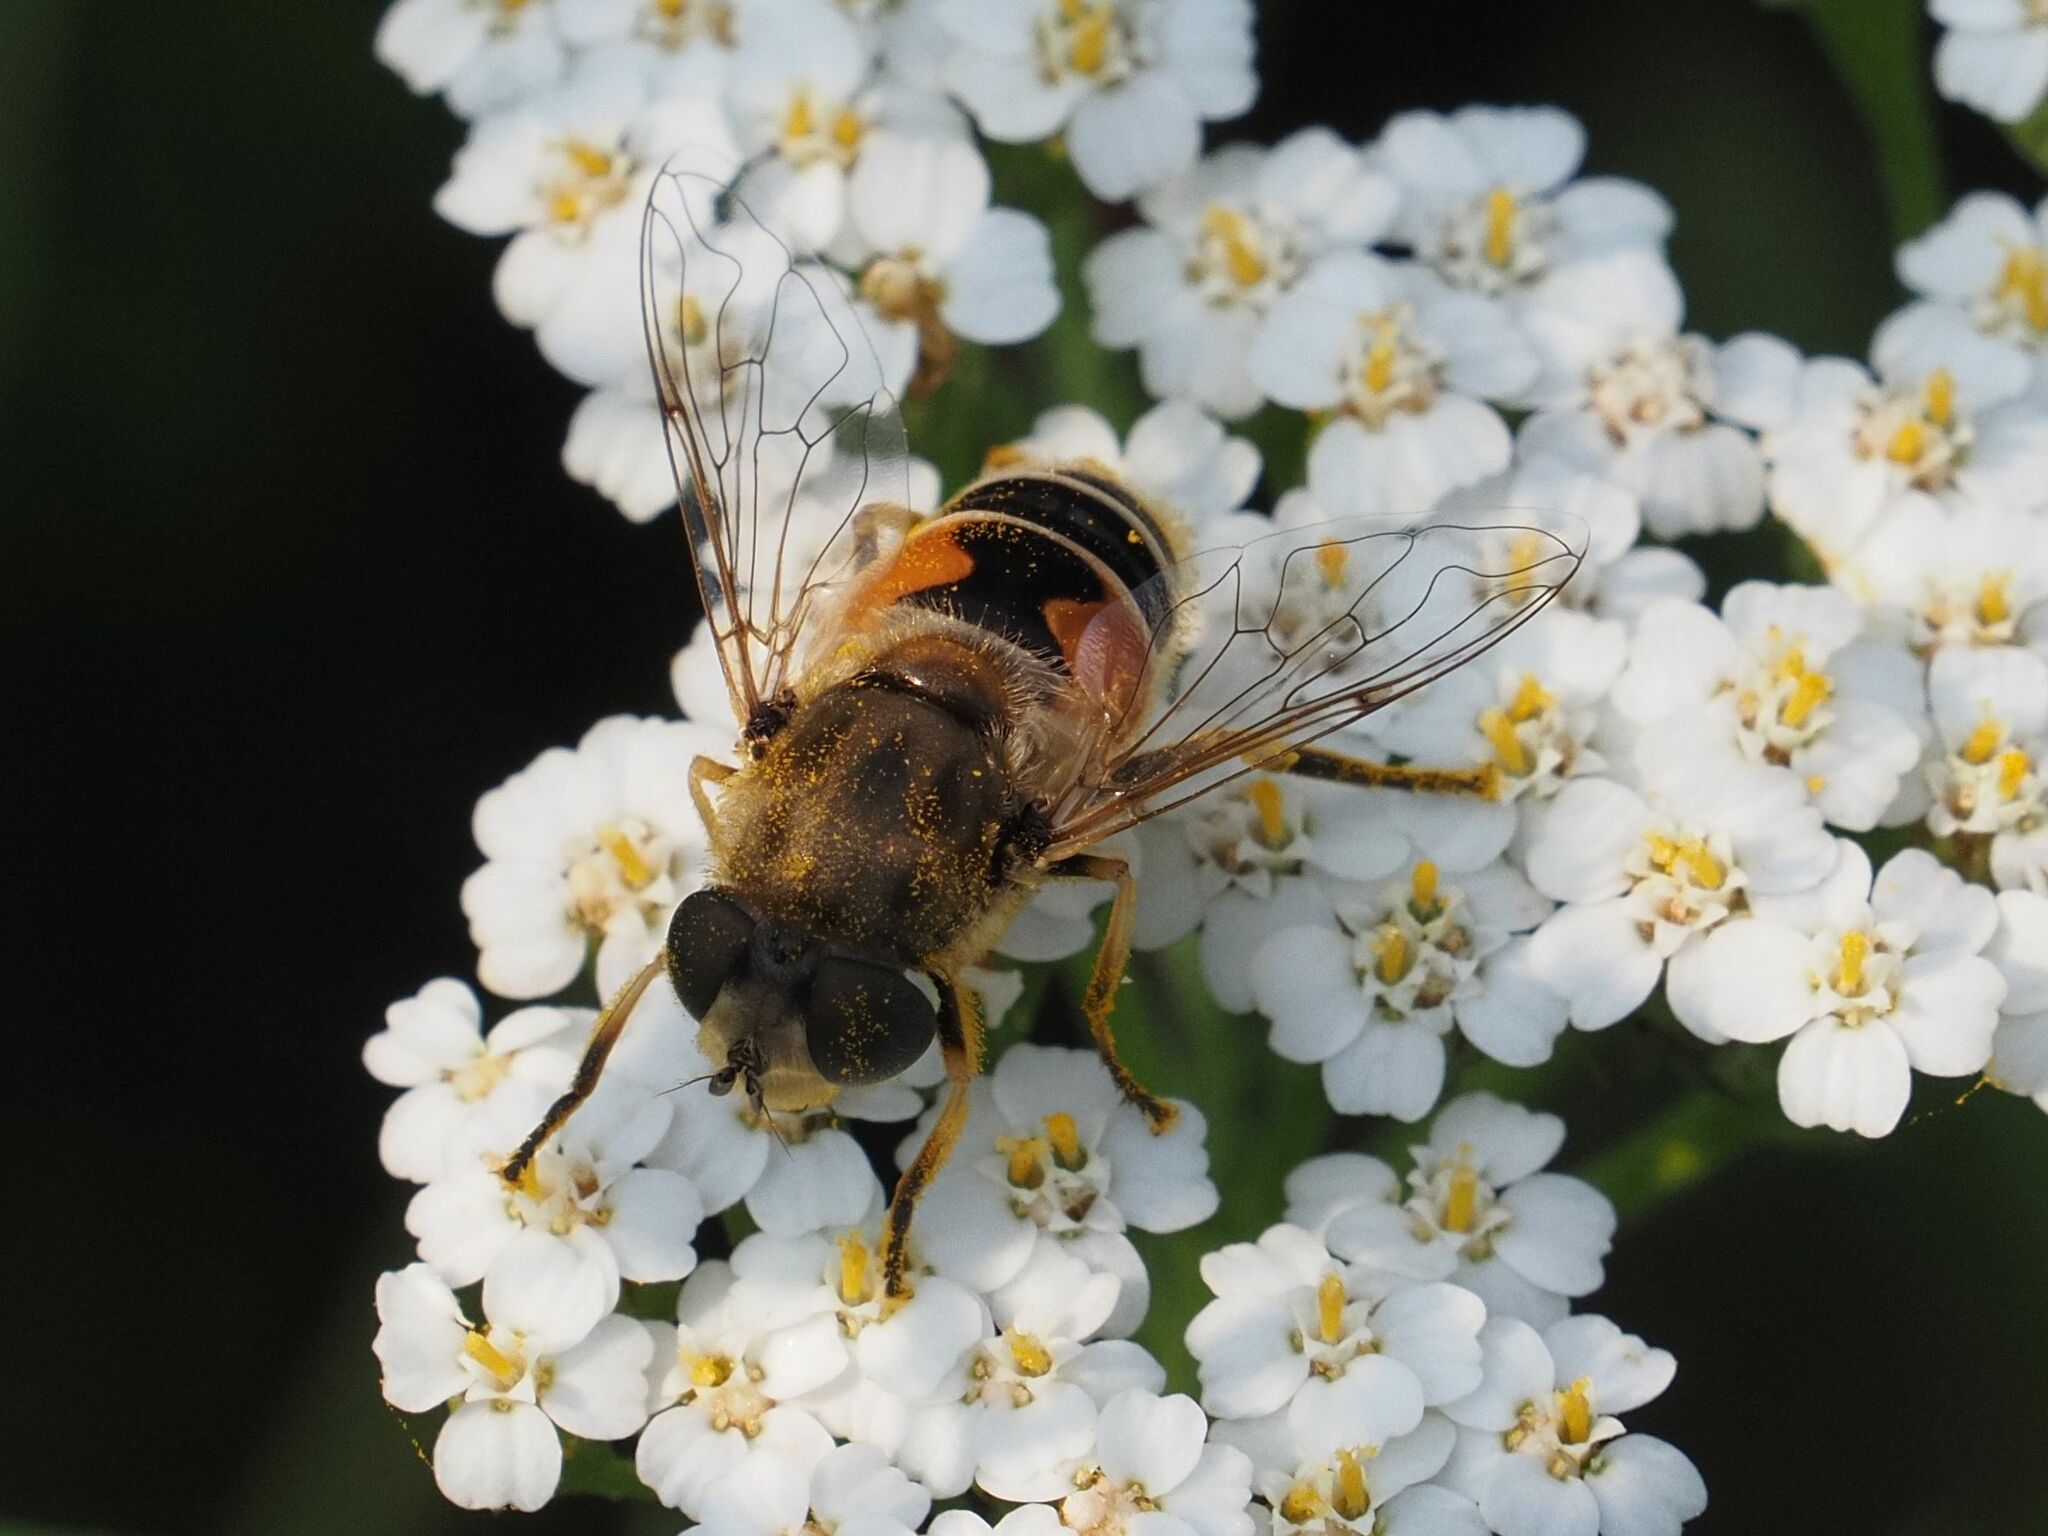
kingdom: Animalia
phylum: Arthropoda
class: Insecta
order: Diptera
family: Syrphidae
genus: Eristalis
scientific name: Eristalis arbustorum
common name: Hover fly
